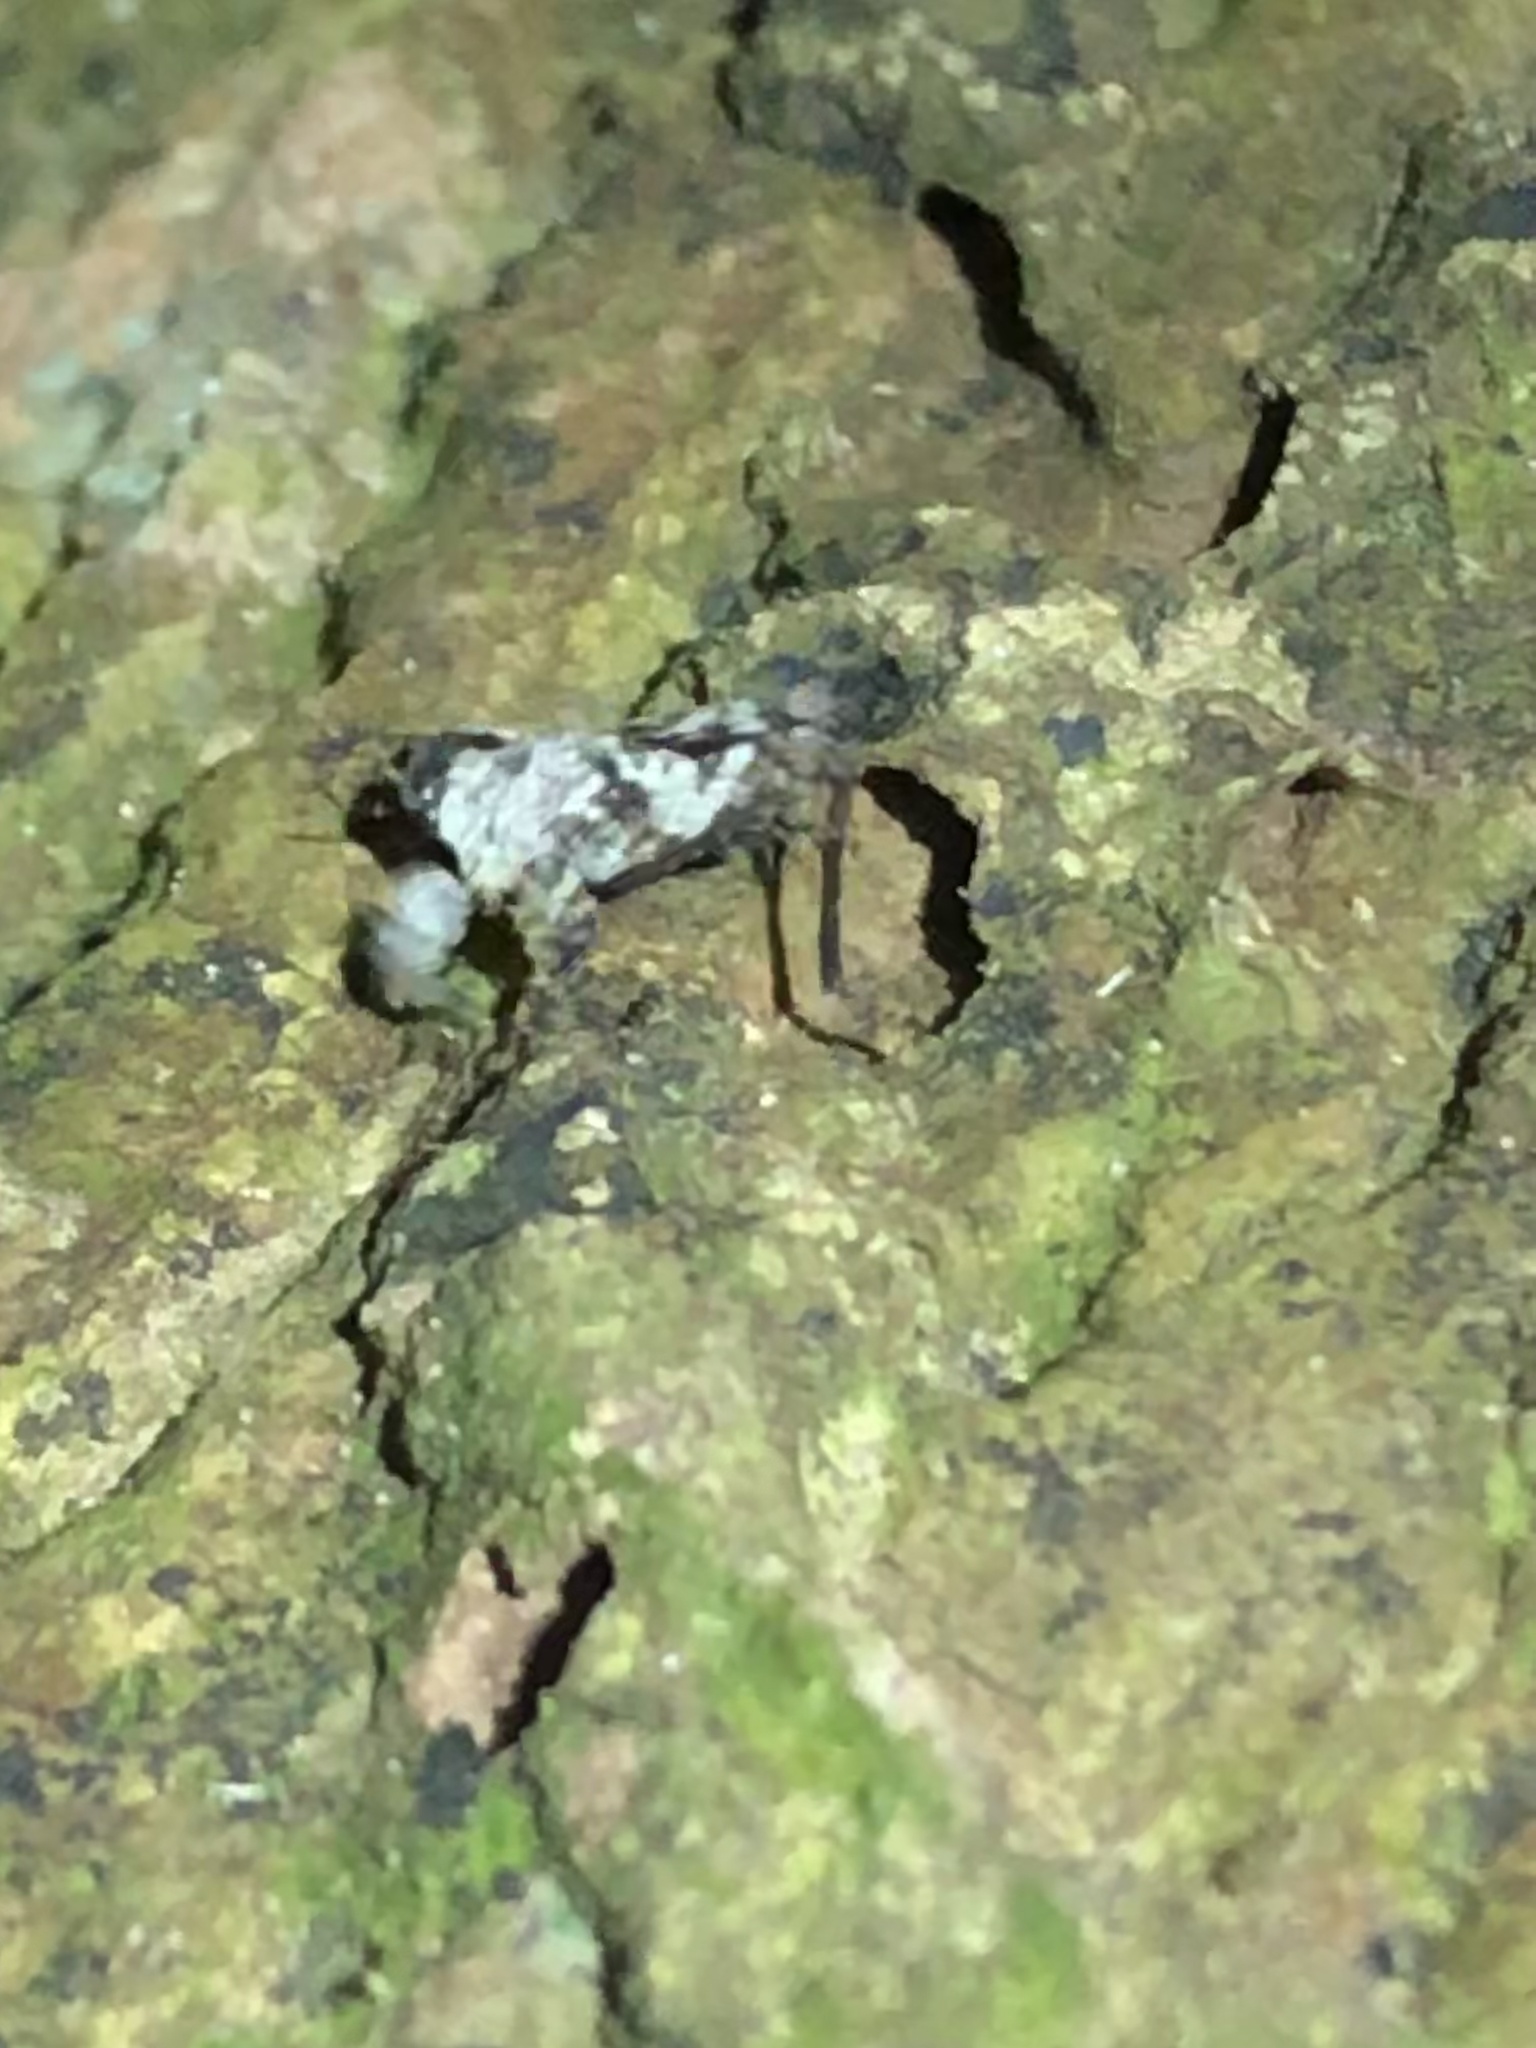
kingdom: Animalia
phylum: Arthropoda
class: Insecta
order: Orthoptera
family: Tetrigidae
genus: Amorphopus
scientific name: Amorphopus notabilis
